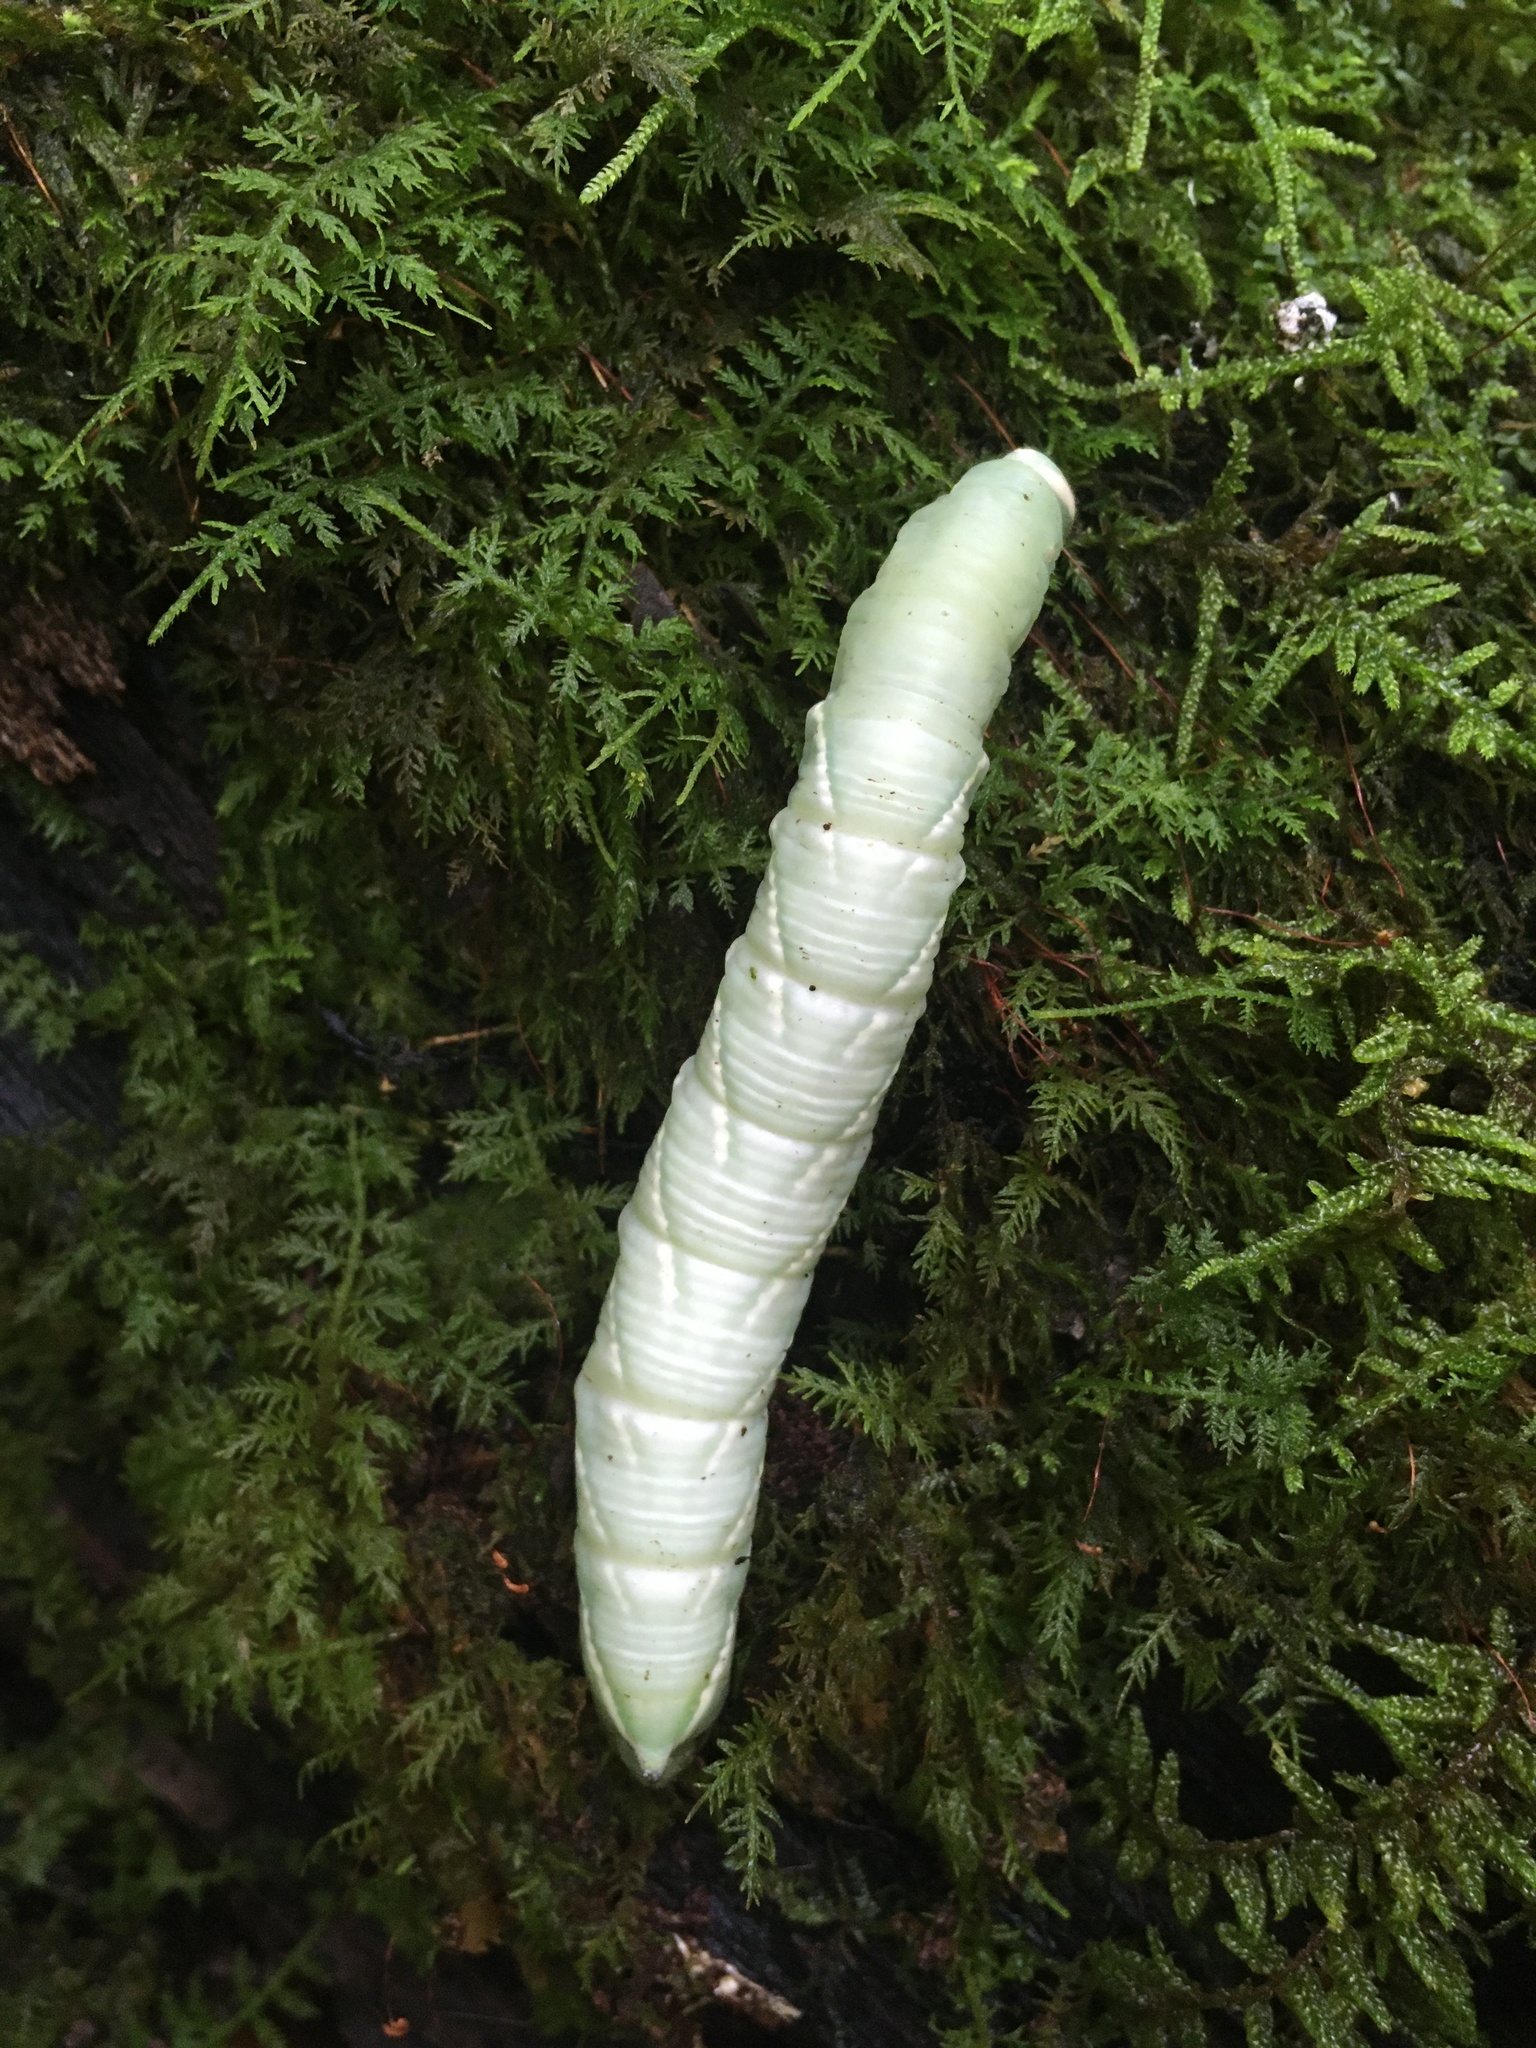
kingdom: Animalia
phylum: Arthropoda
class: Insecta
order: Lepidoptera
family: Sphingidae
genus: Ceratomia
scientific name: Ceratomia undulosa
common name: Waved sphinx
